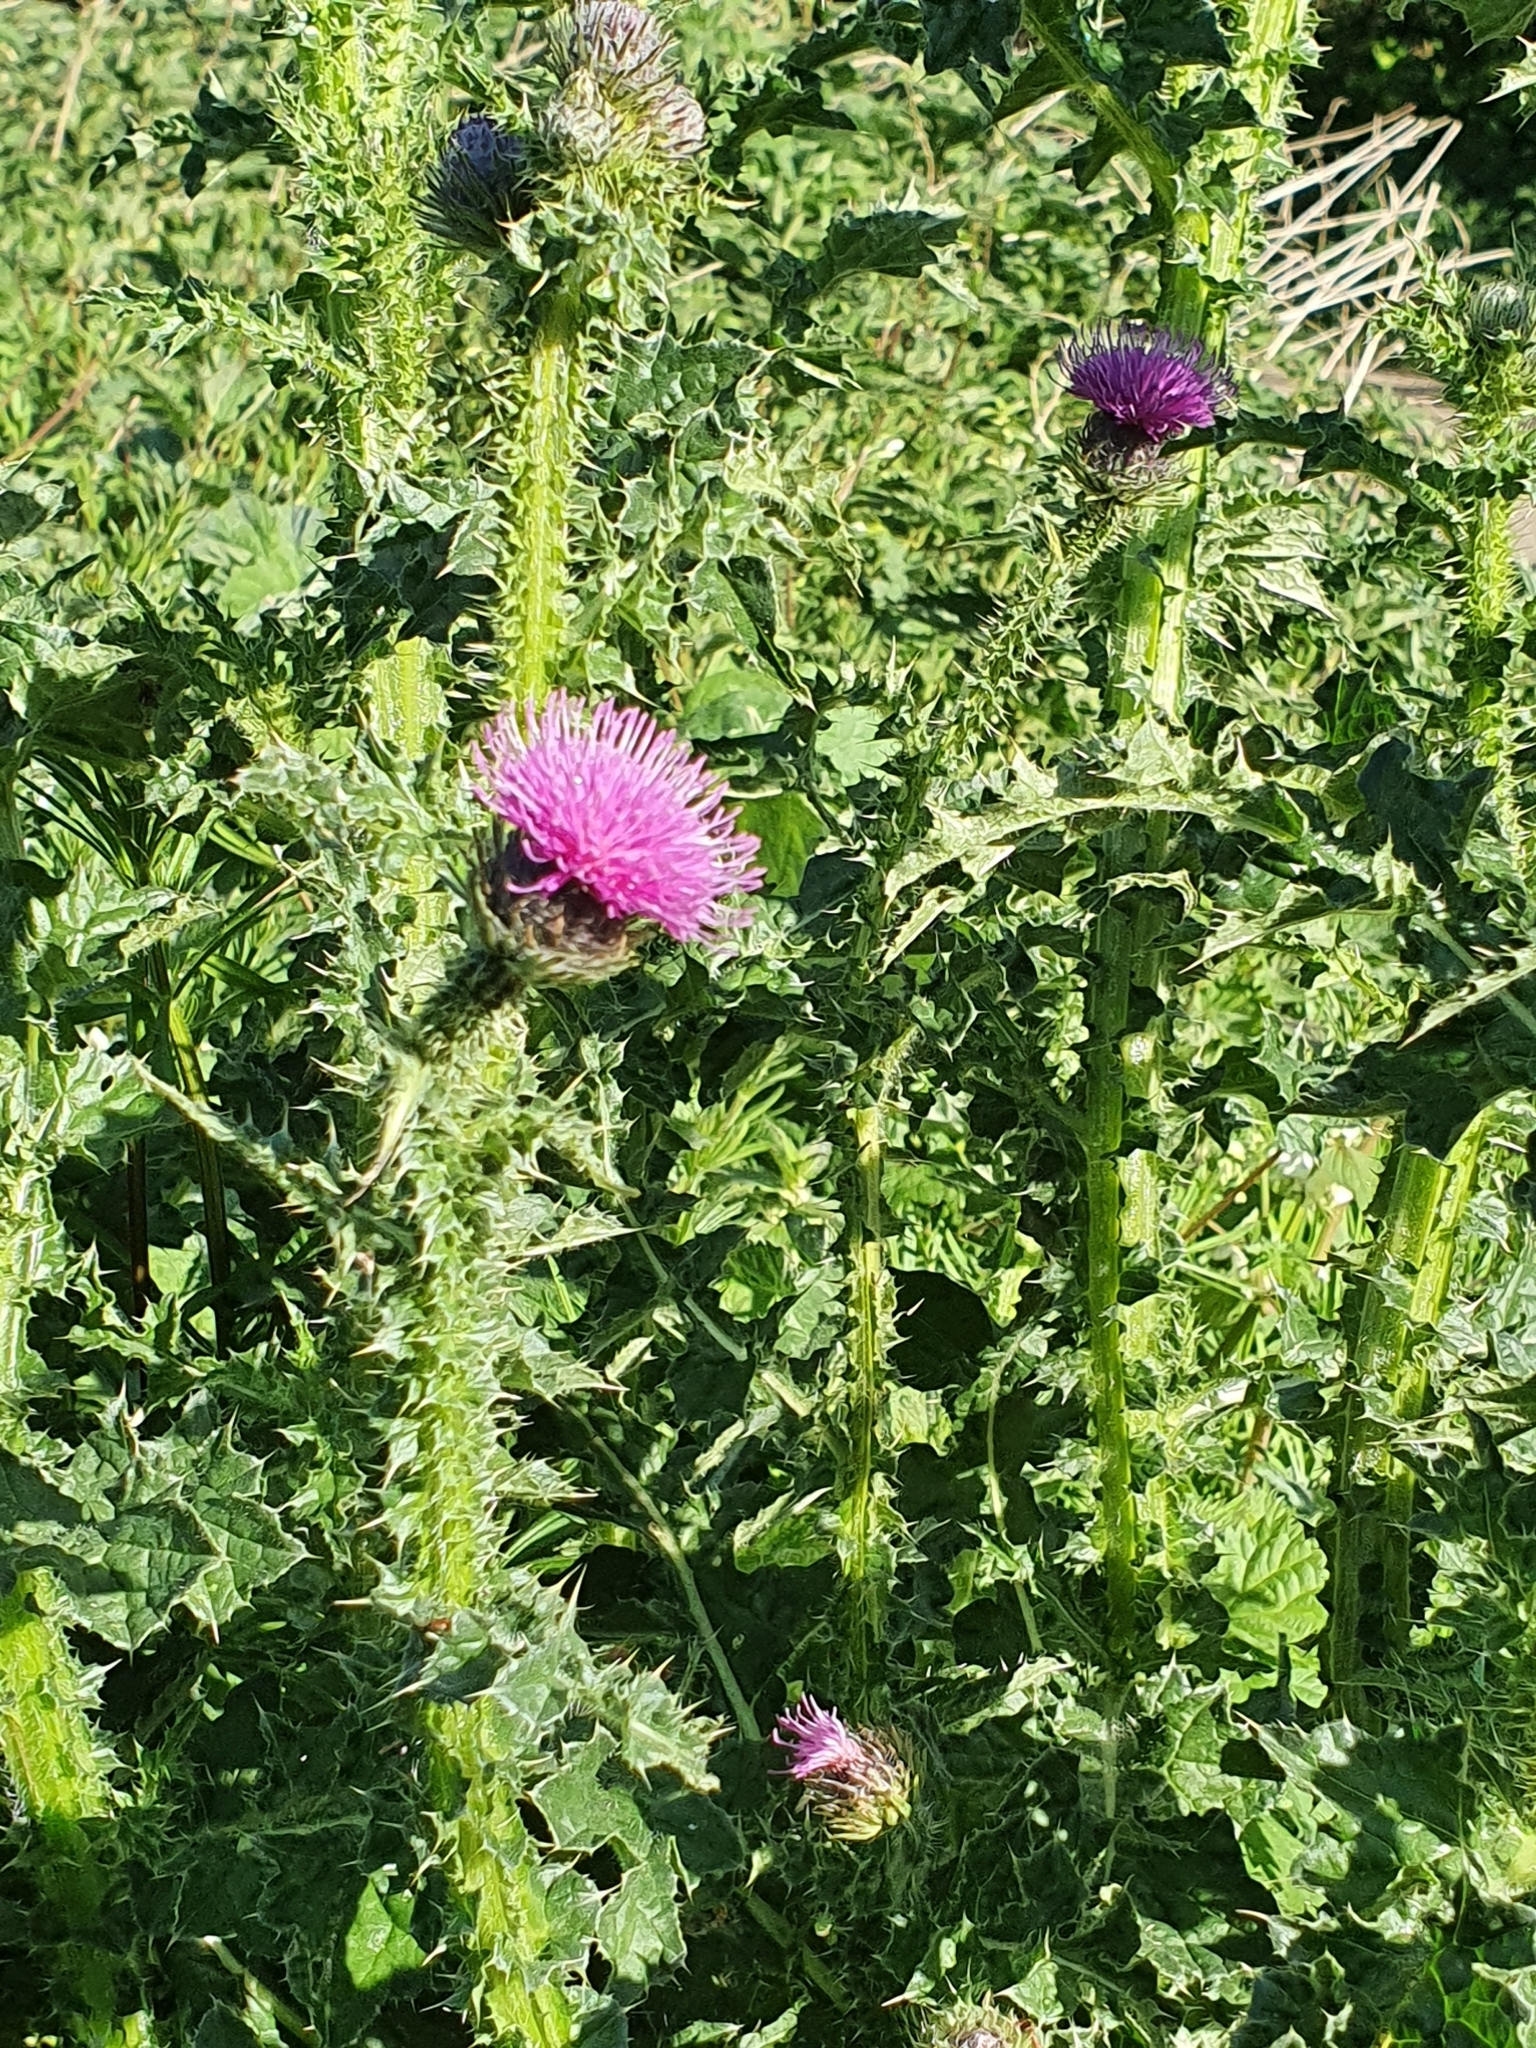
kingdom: Plantae
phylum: Tracheophyta
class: Magnoliopsida
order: Asterales
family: Asteraceae
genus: Carduus
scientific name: Carduus acanthoides
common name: Plumeless thistle
